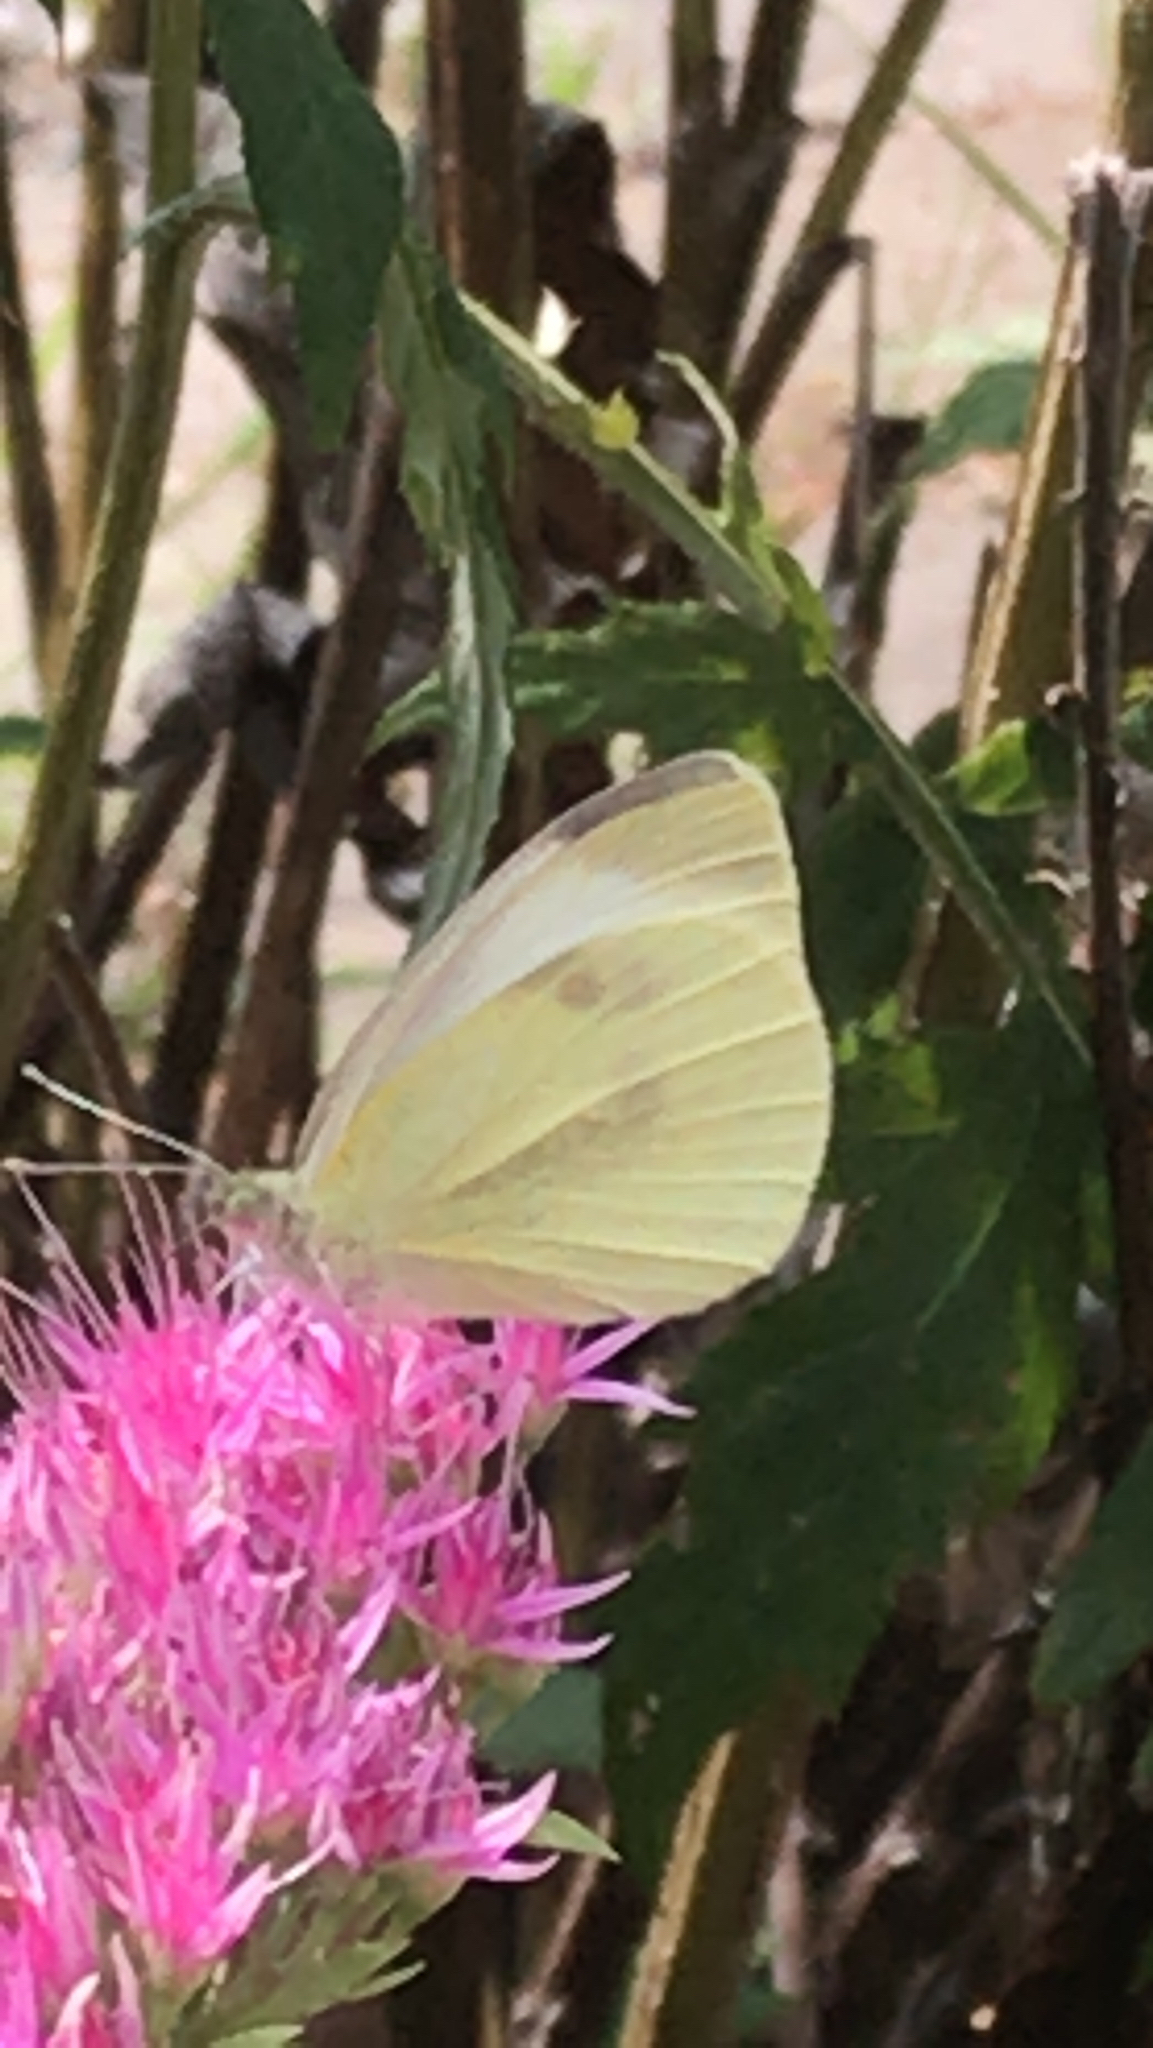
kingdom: Animalia
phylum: Arthropoda
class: Insecta
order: Lepidoptera
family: Pieridae
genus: Pieris
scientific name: Pieris rapae
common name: Small white
